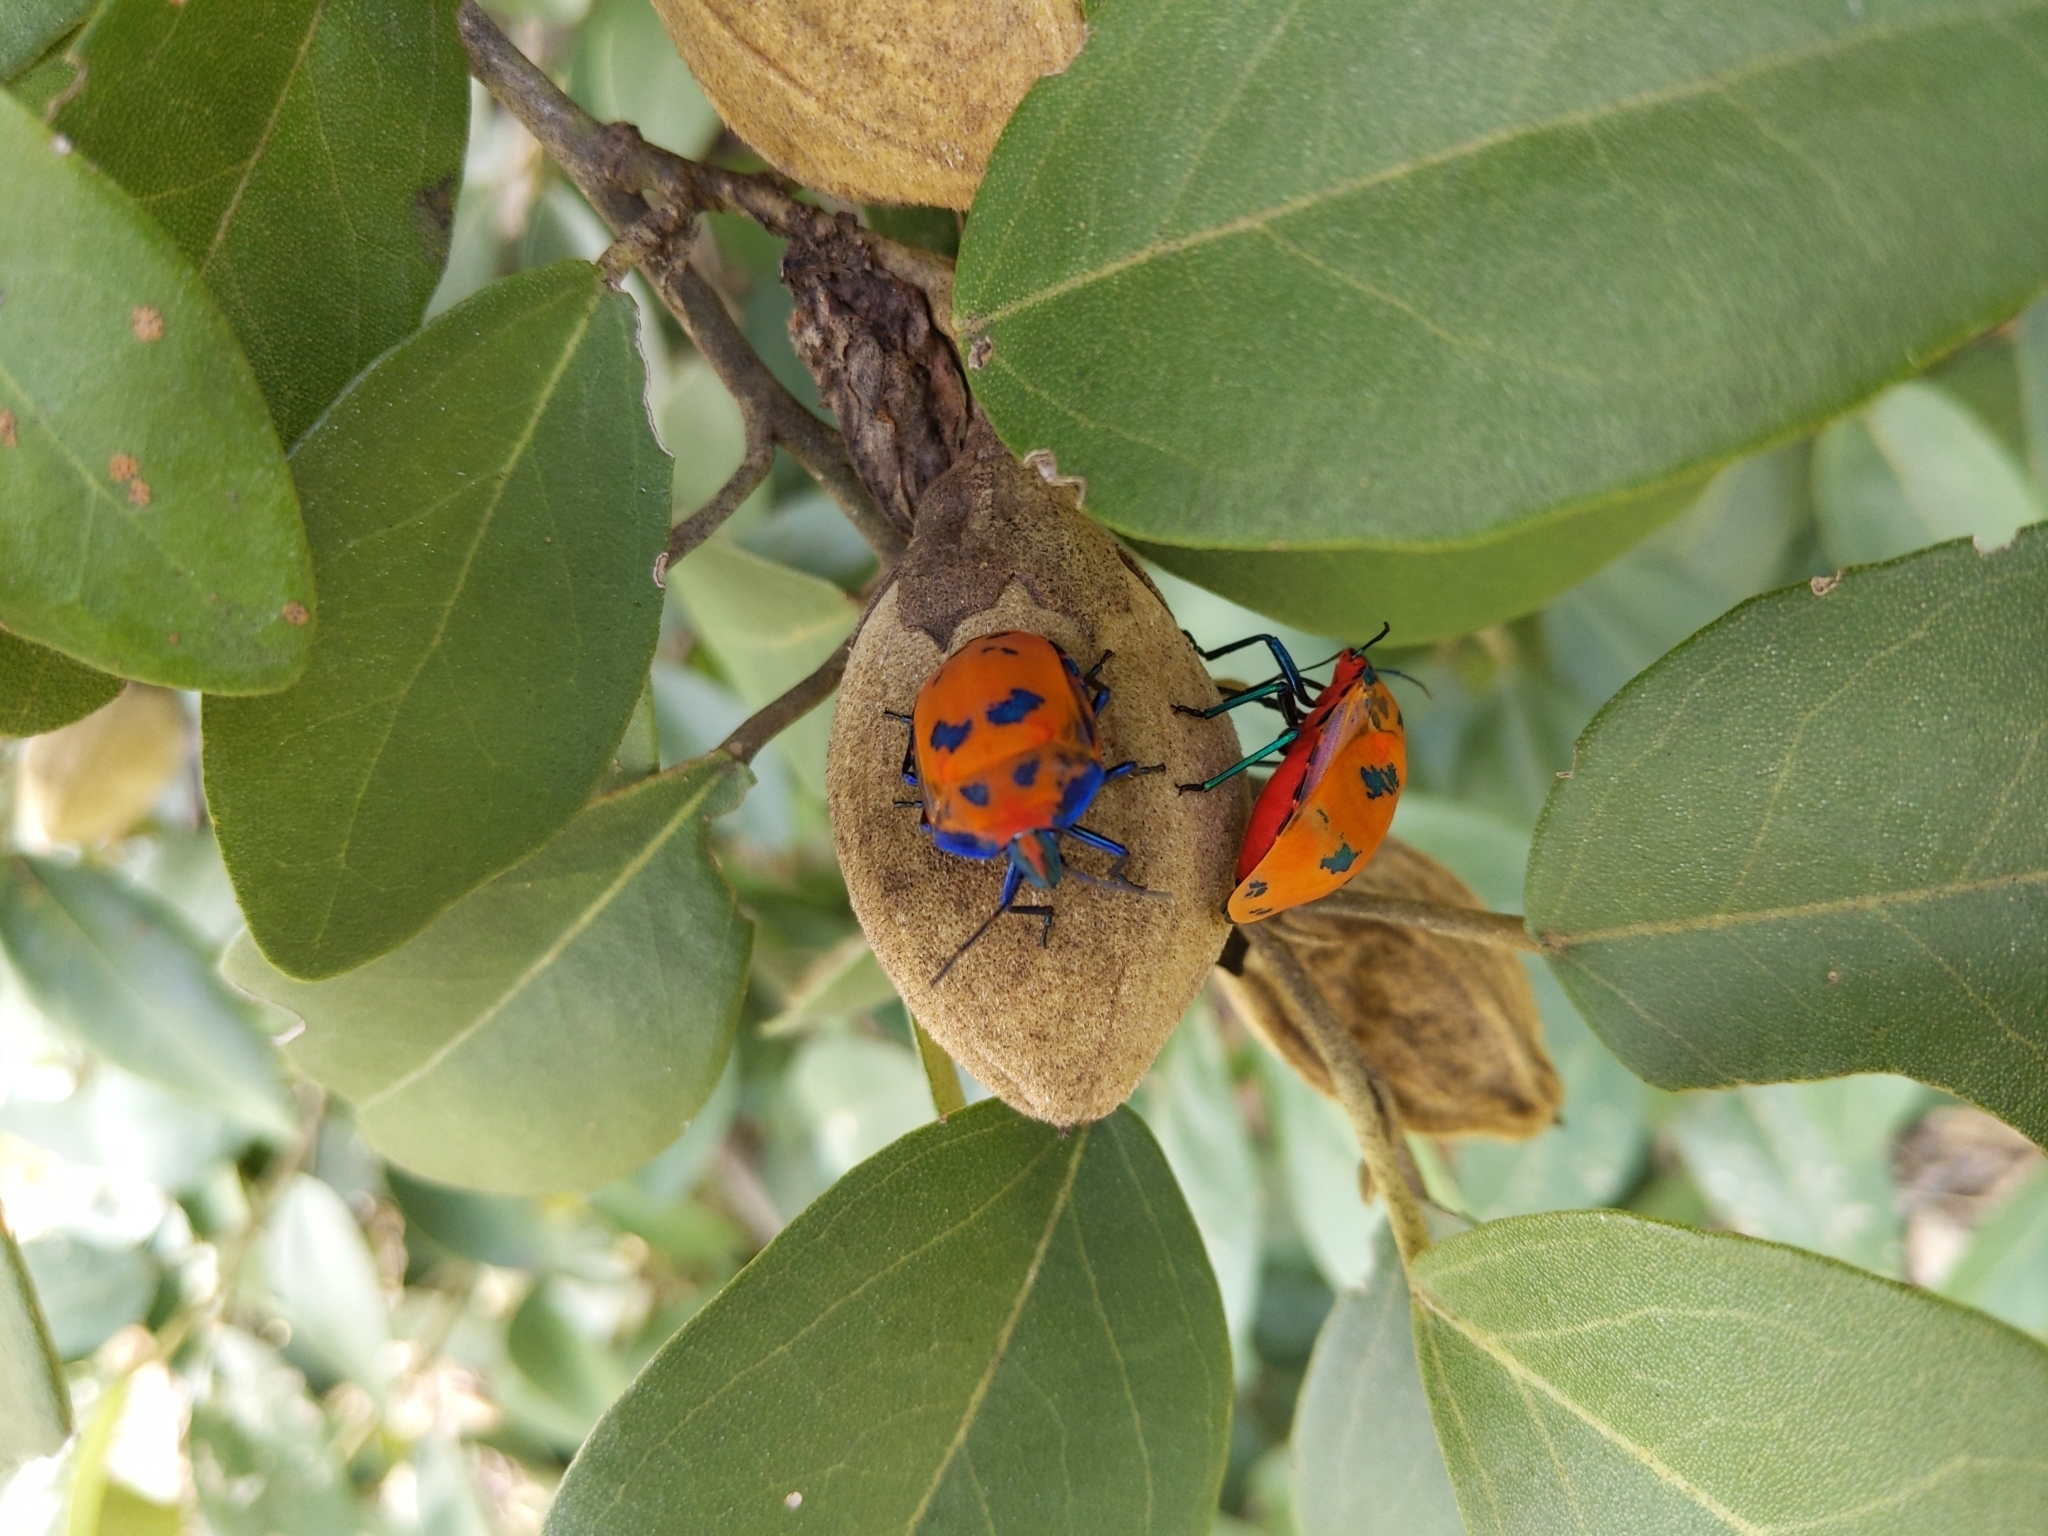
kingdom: Animalia
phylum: Arthropoda
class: Insecta
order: Hemiptera
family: Scutelleridae
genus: Tectocoris
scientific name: Tectocoris diophthalmus
